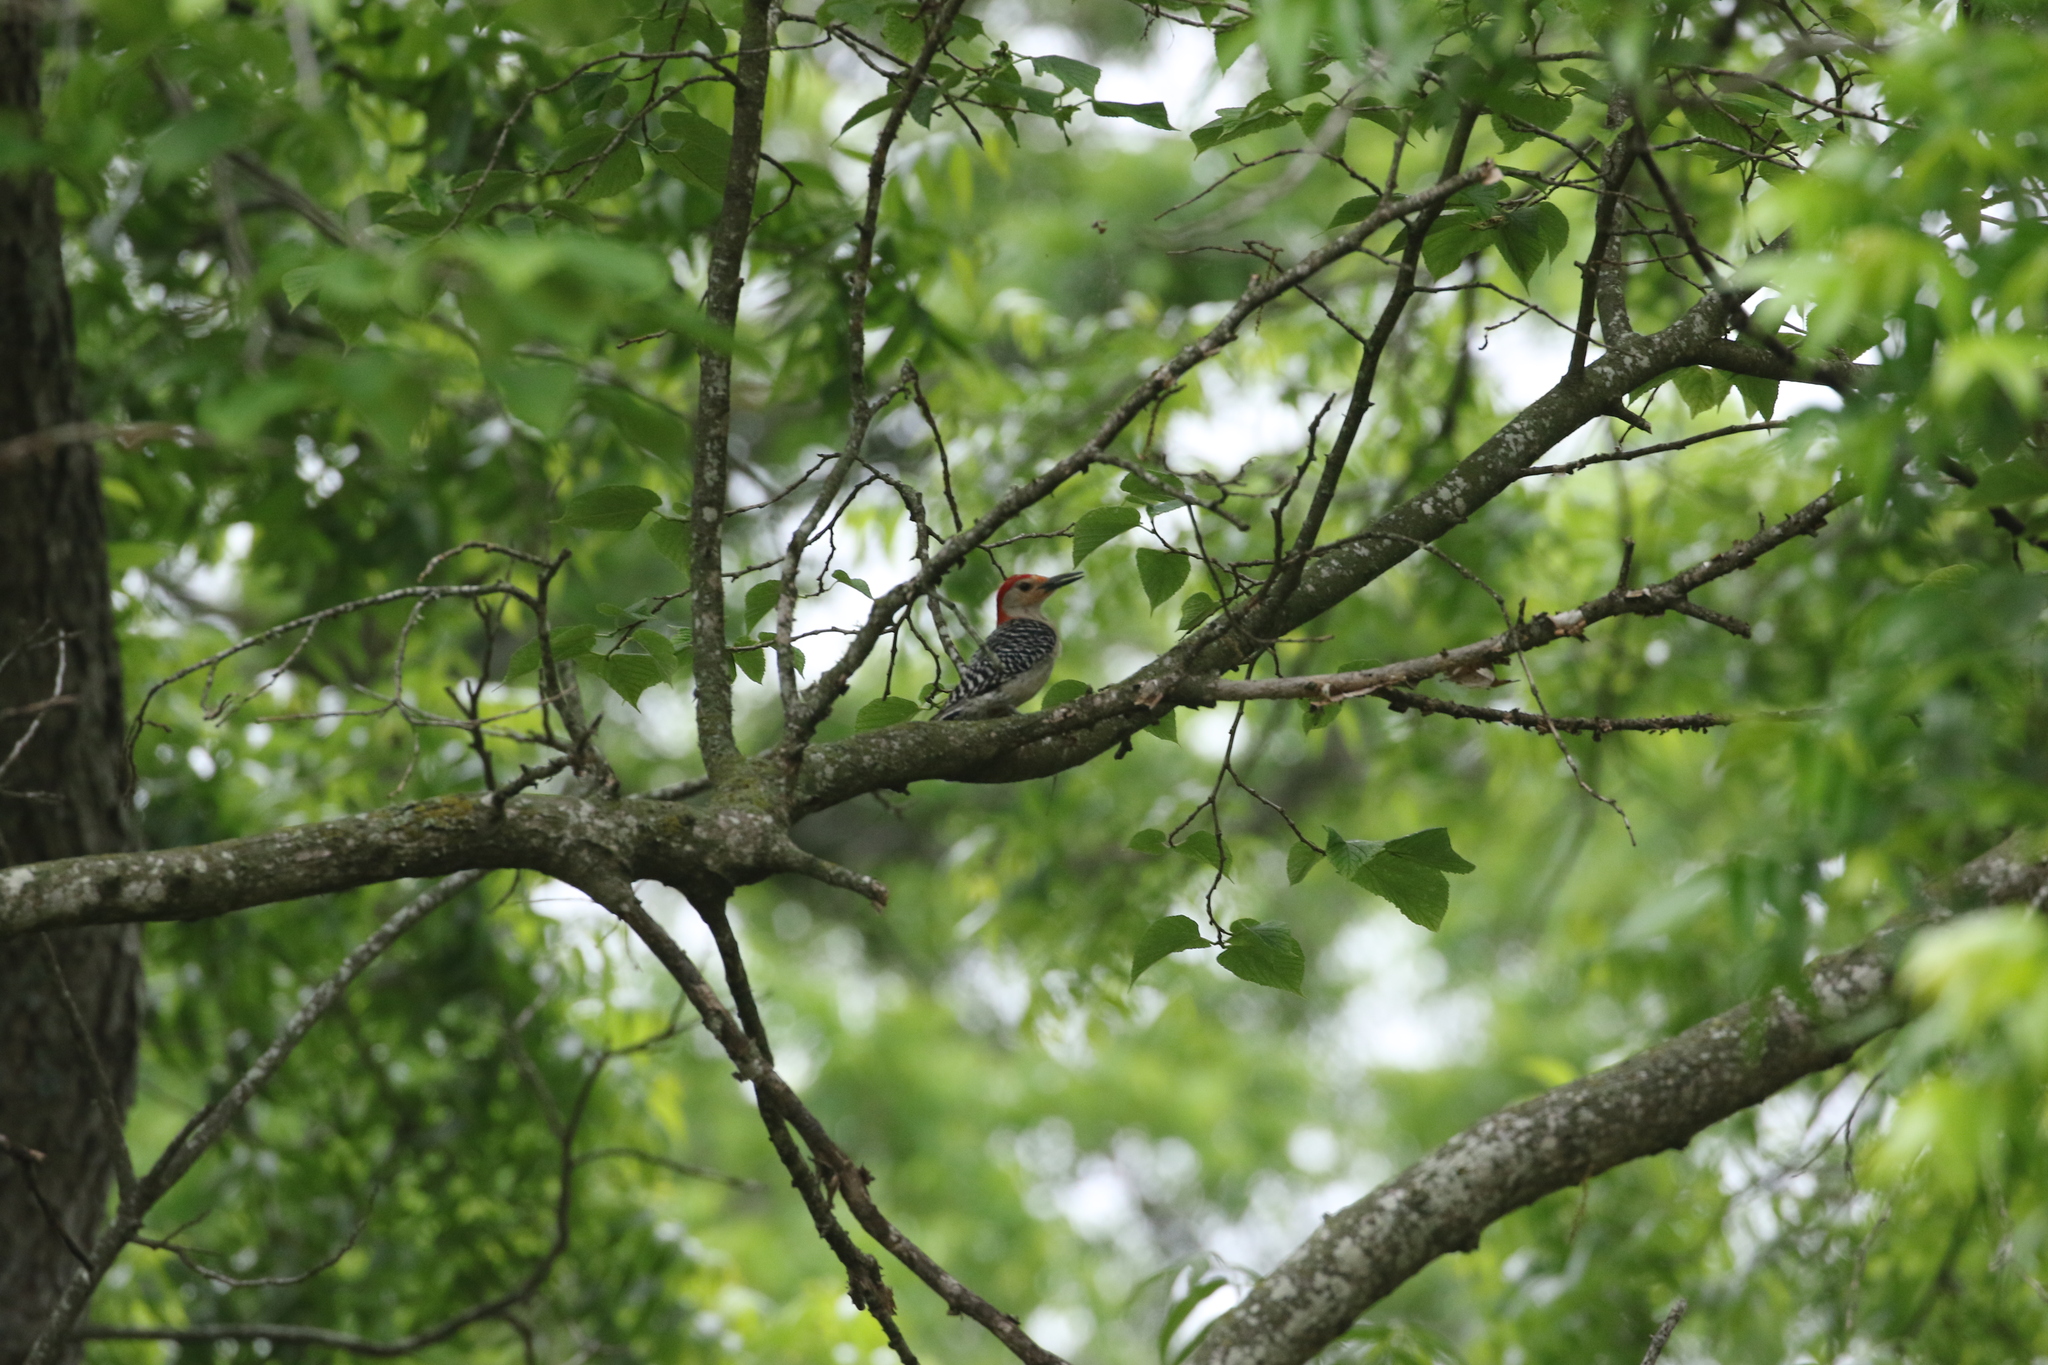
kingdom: Animalia
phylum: Chordata
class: Aves
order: Piciformes
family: Picidae
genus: Melanerpes
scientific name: Melanerpes carolinus
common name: Red-bellied woodpecker
